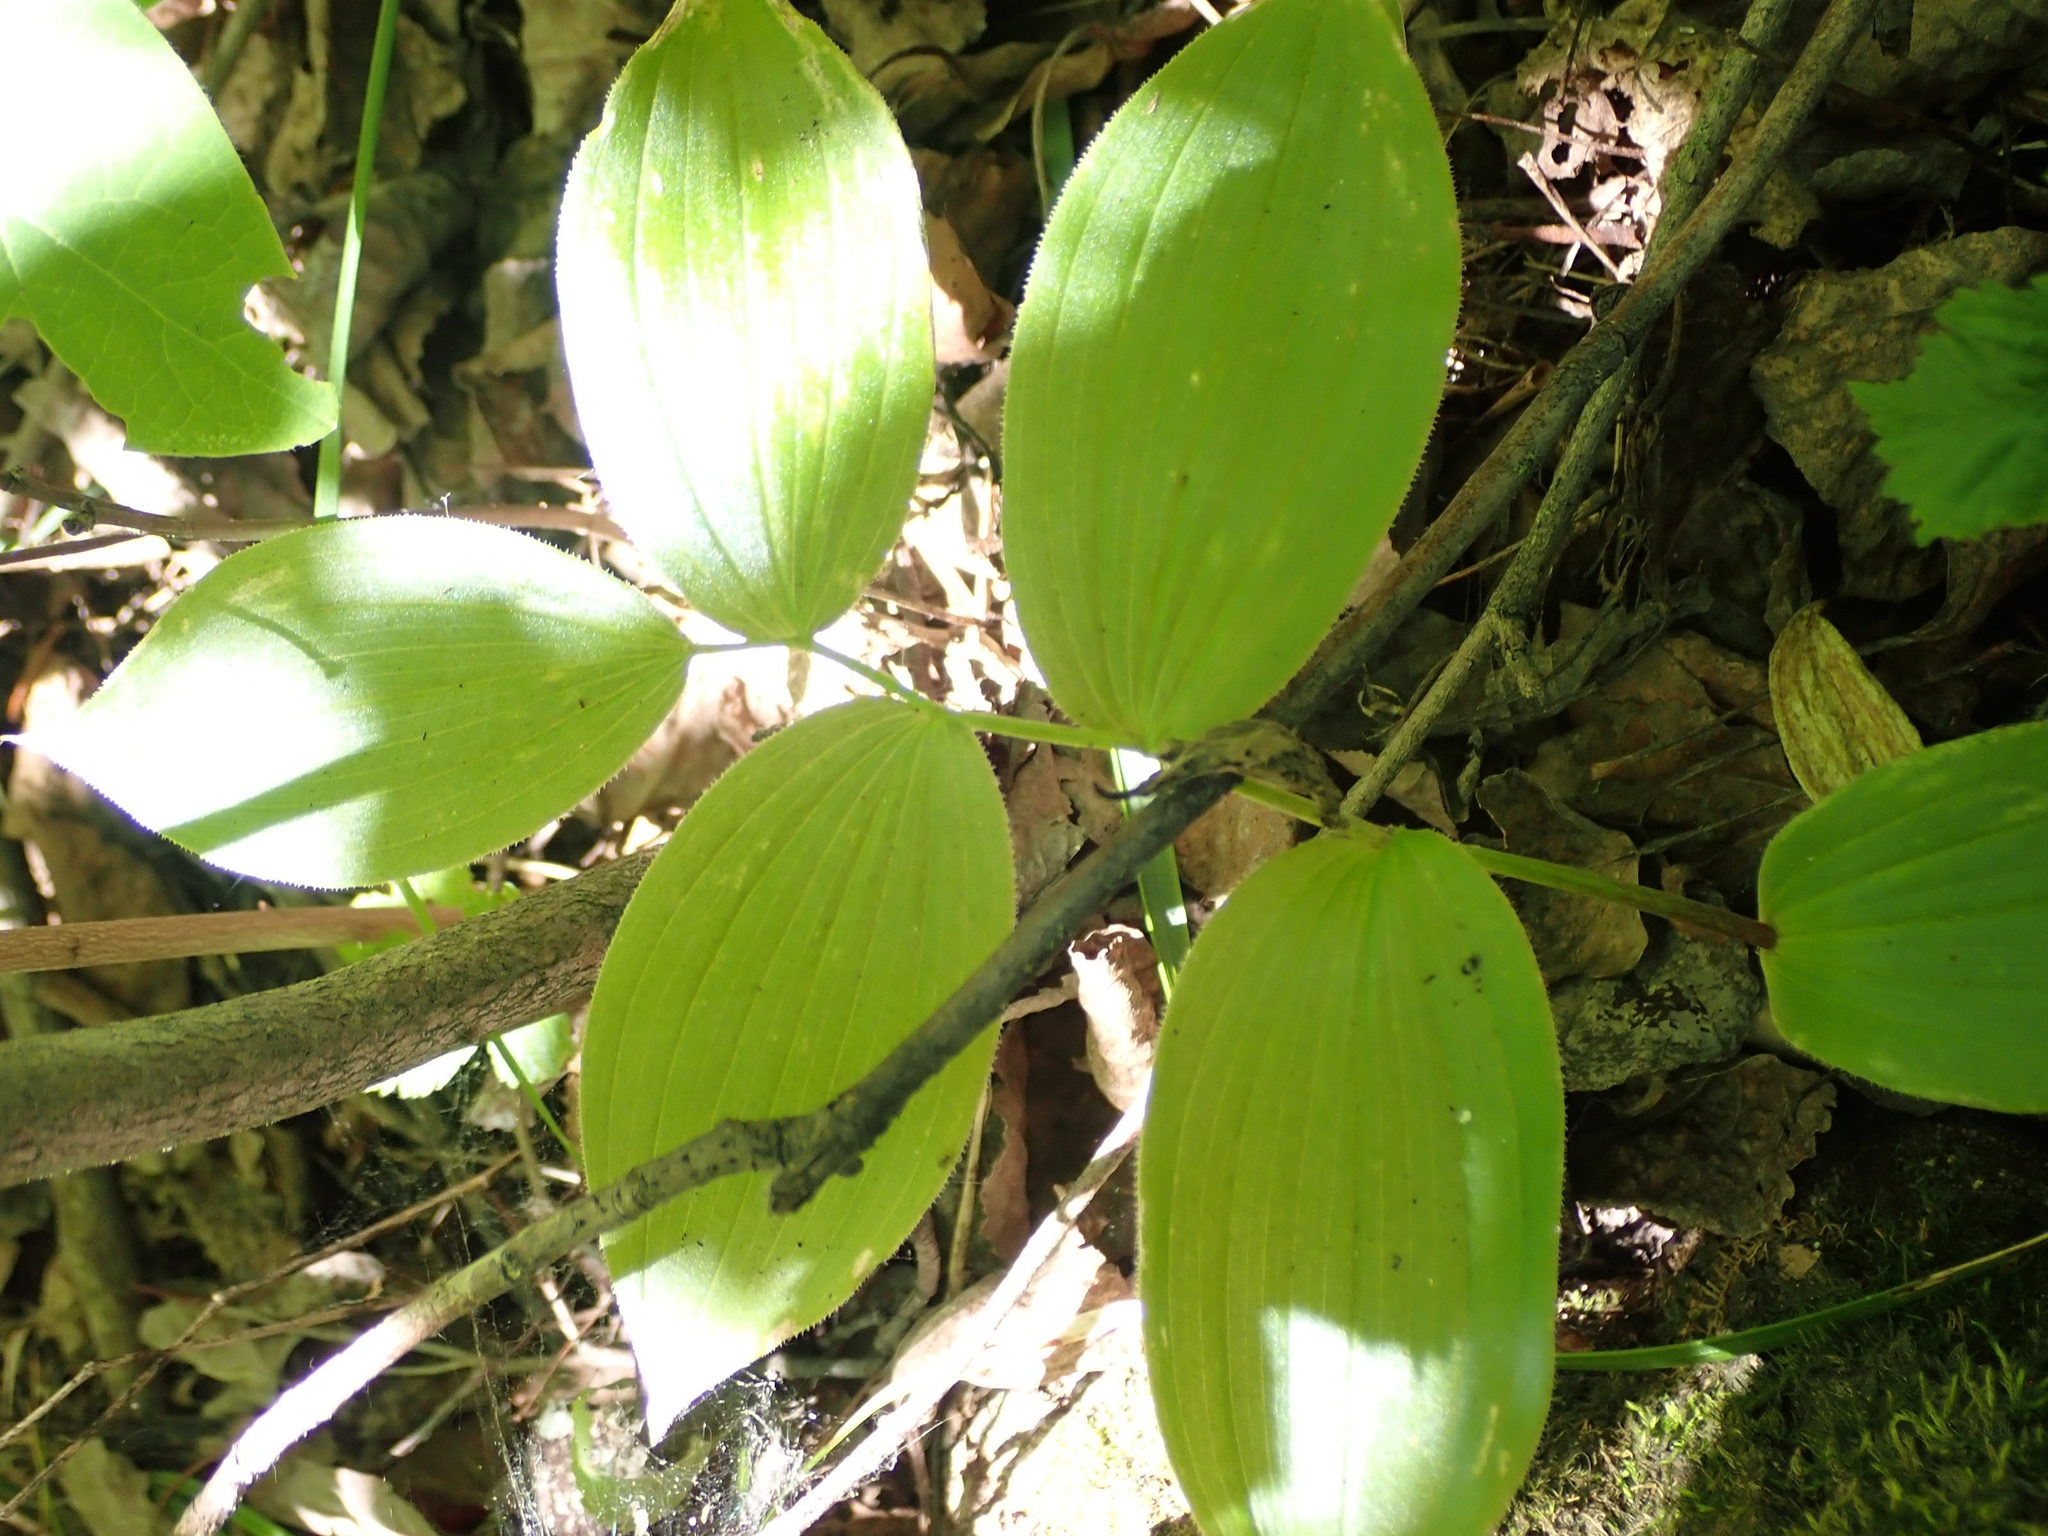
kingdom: Plantae
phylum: Tracheophyta
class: Liliopsida
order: Liliales
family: Liliaceae
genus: Streptopus
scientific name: Streptopus lanceolatus
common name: Rose mandarin
